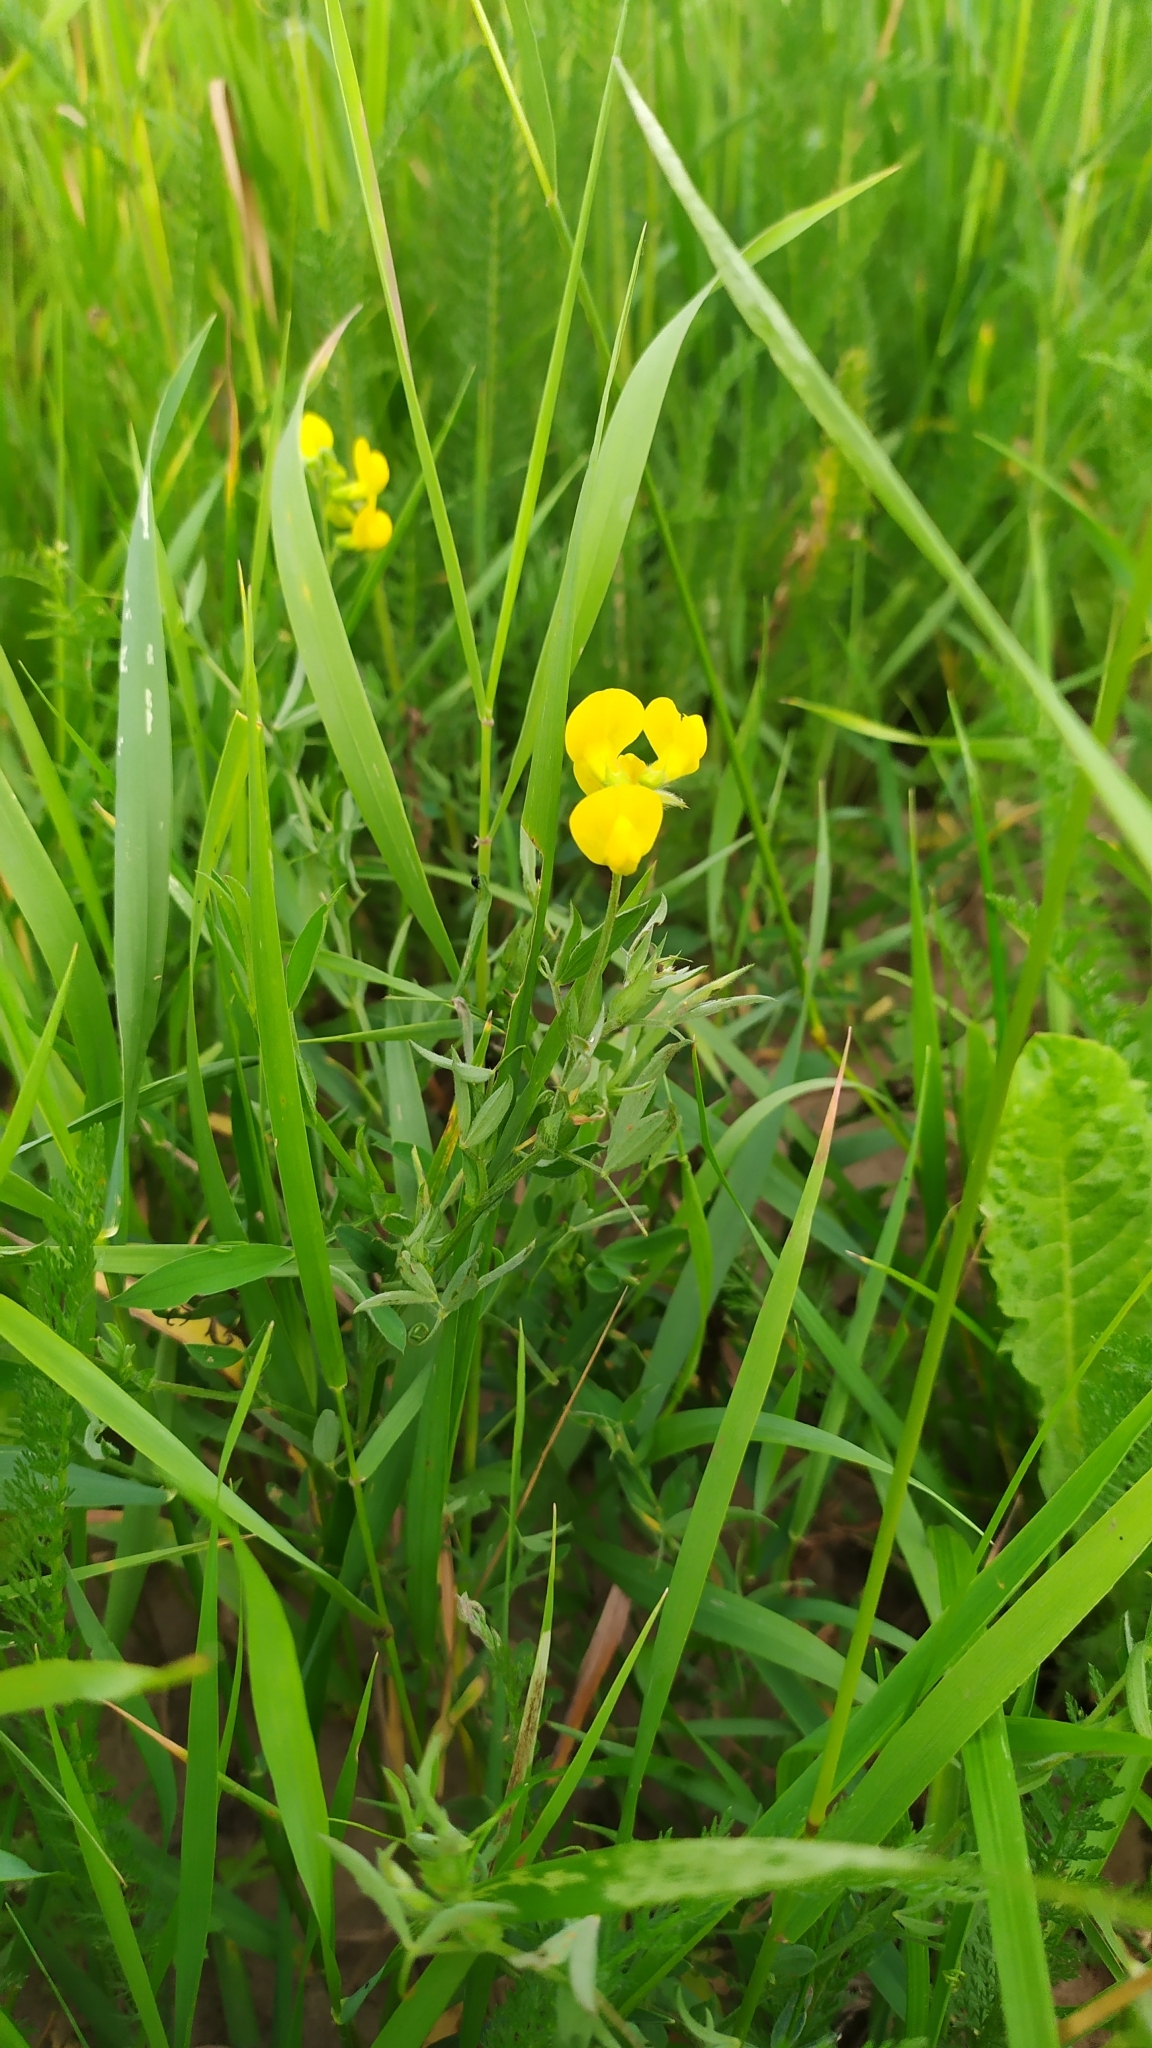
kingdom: Plantae
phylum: Tracheophyta
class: Magnoliopsida
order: Fabales
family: Fabaceae
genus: Lathyrus
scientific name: Lathyrus pratensis
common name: Meadow vetchling
